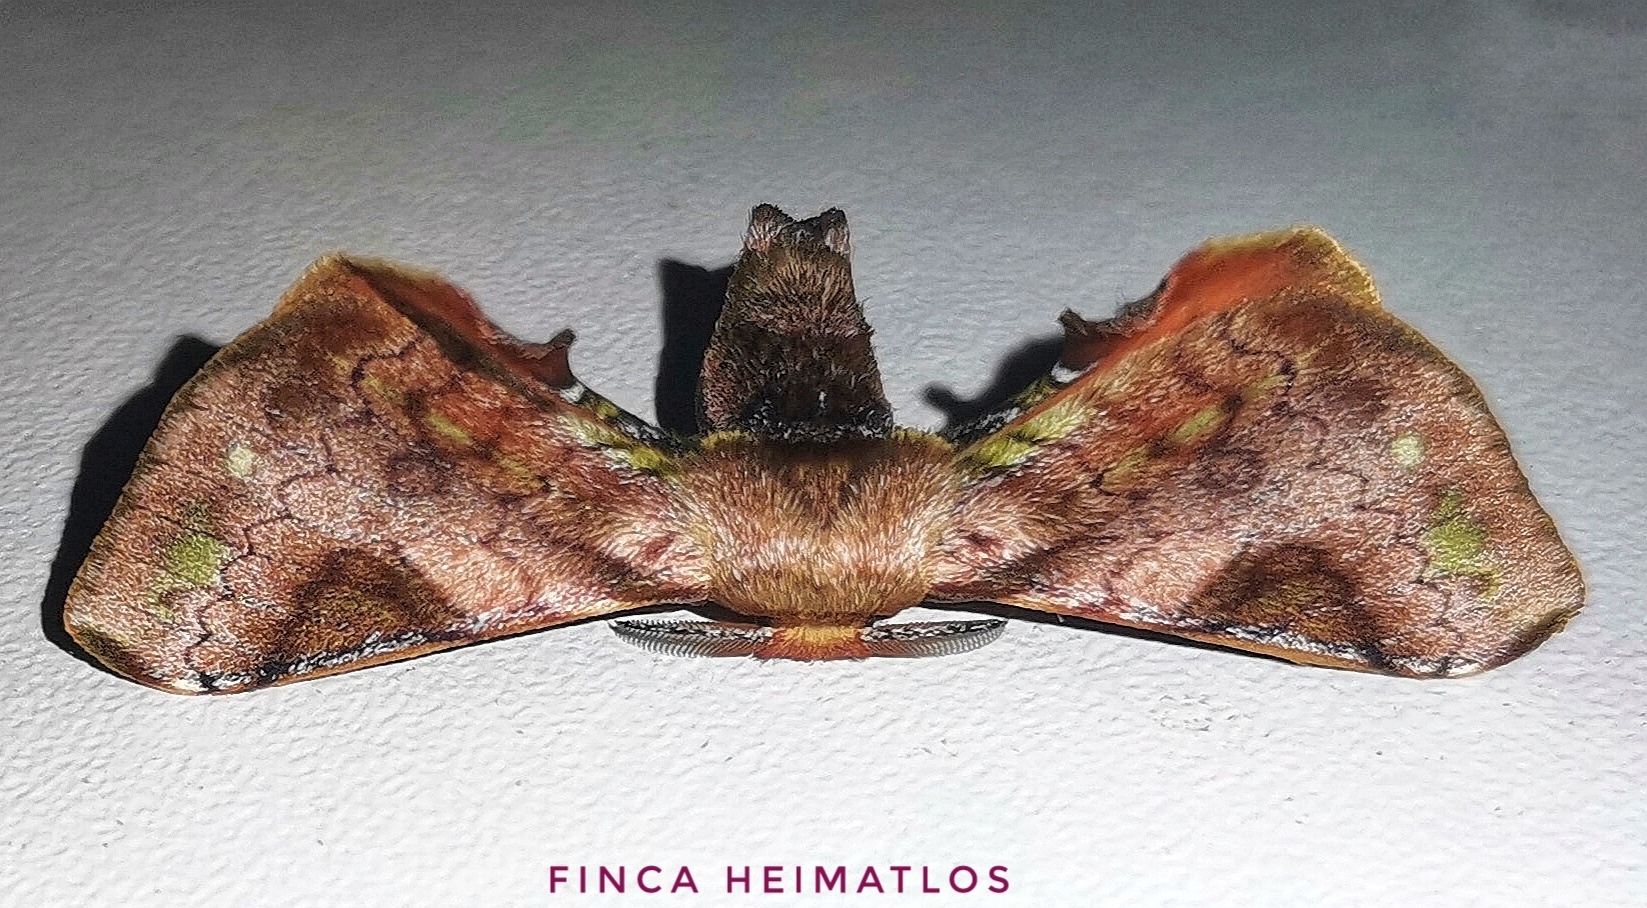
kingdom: Animalia
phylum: Arthropoda
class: Insecta
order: Lepidoptera
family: Bombycidae
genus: Epia
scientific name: Epia vulnerata
